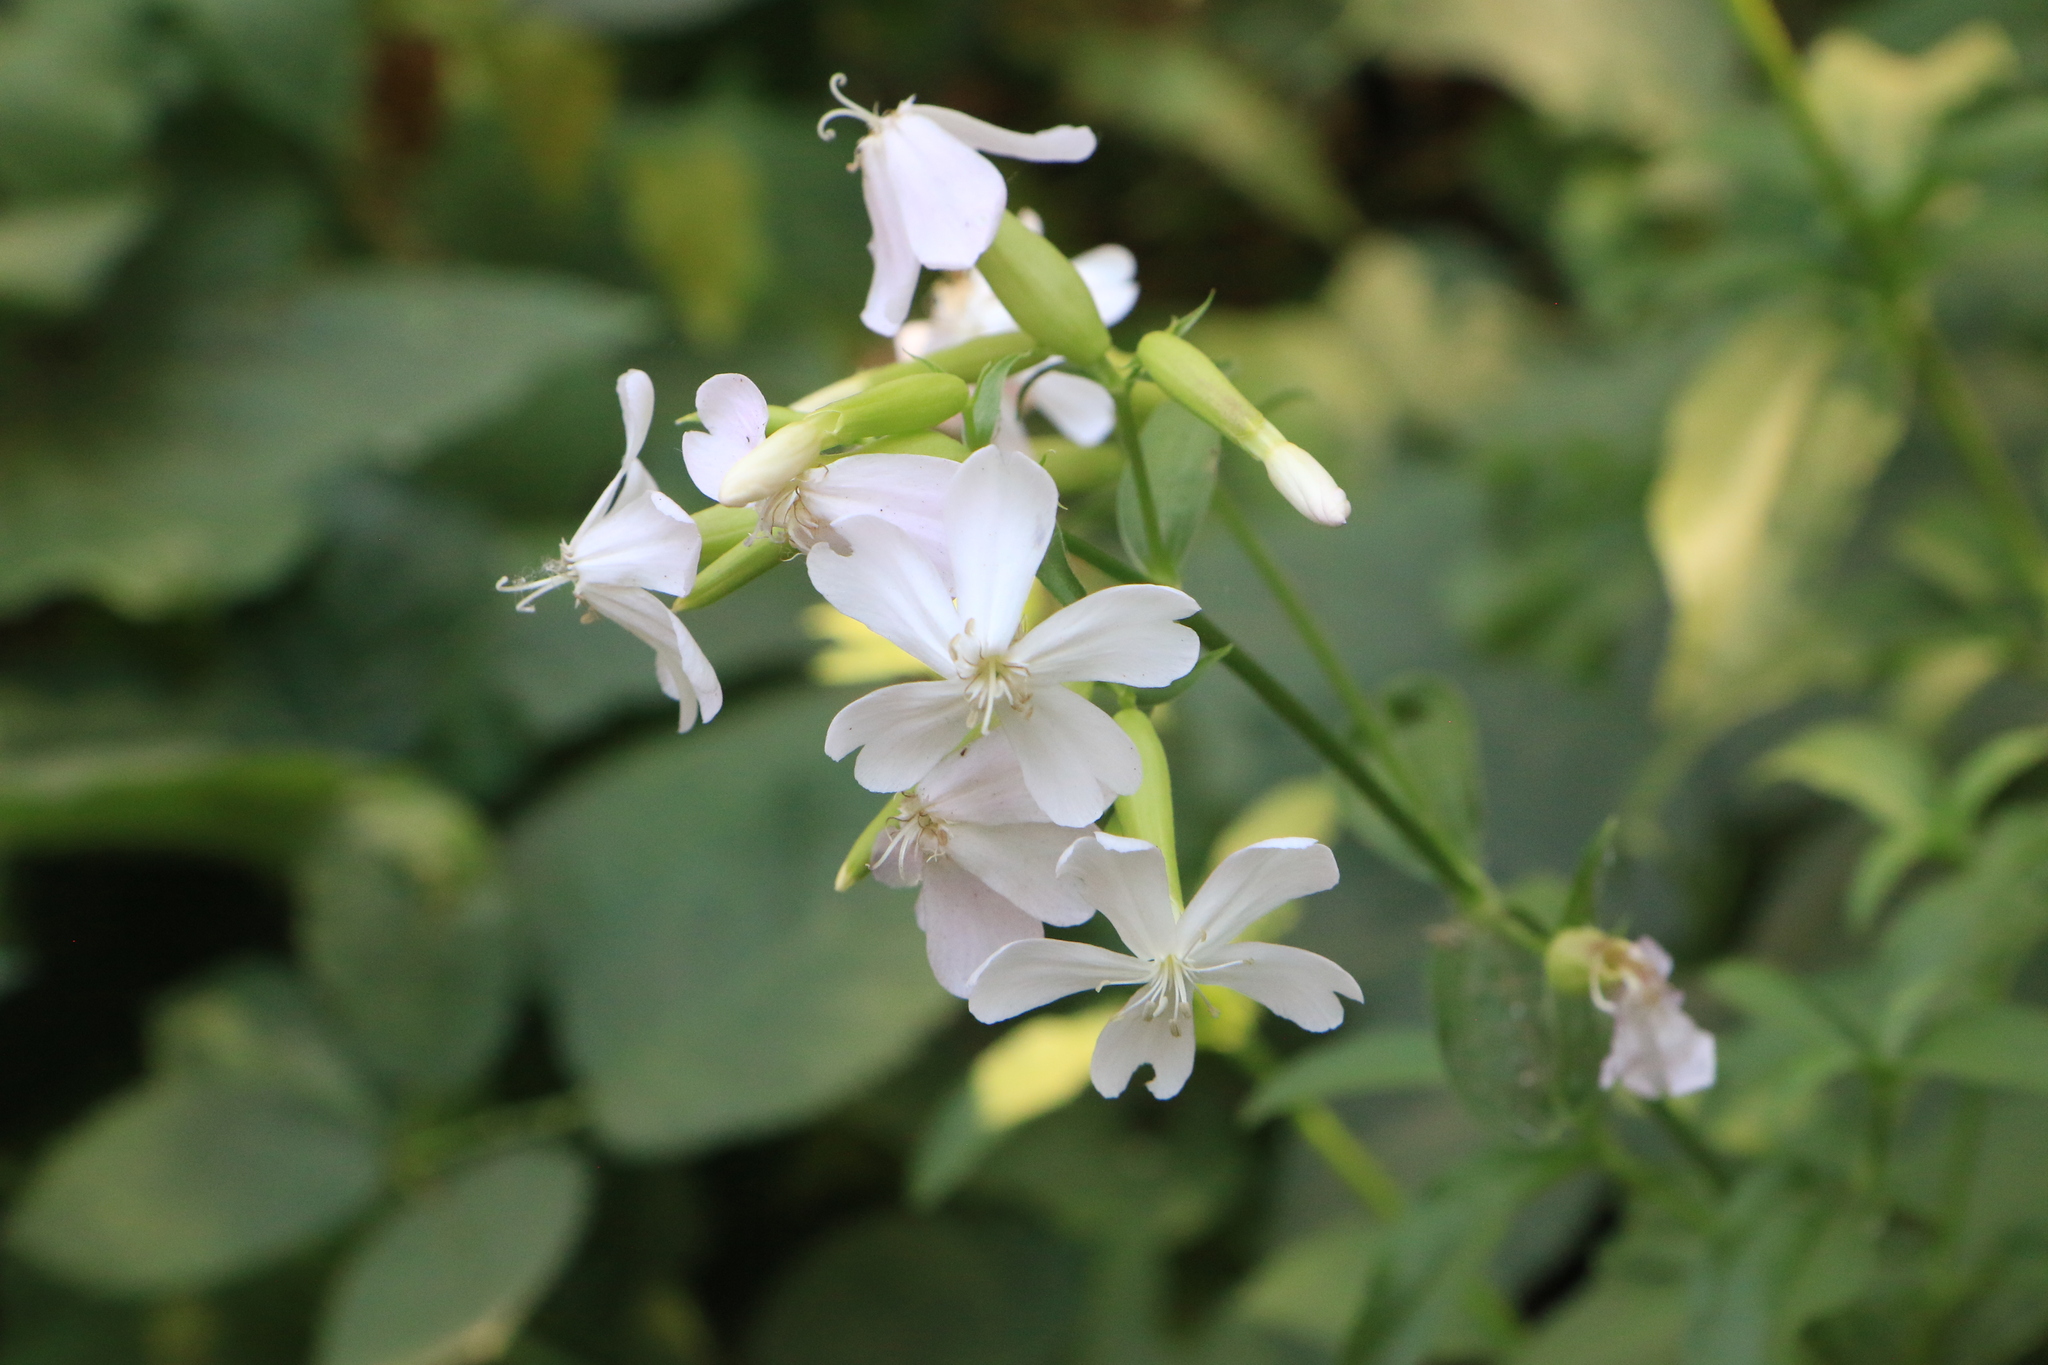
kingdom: Plantae
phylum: Tracheophyta
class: Magnoliopsida
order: Caryophyllales
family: Caryophyllaceae
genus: Saponaria
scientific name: Saponaria officinalis
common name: Soapwort
